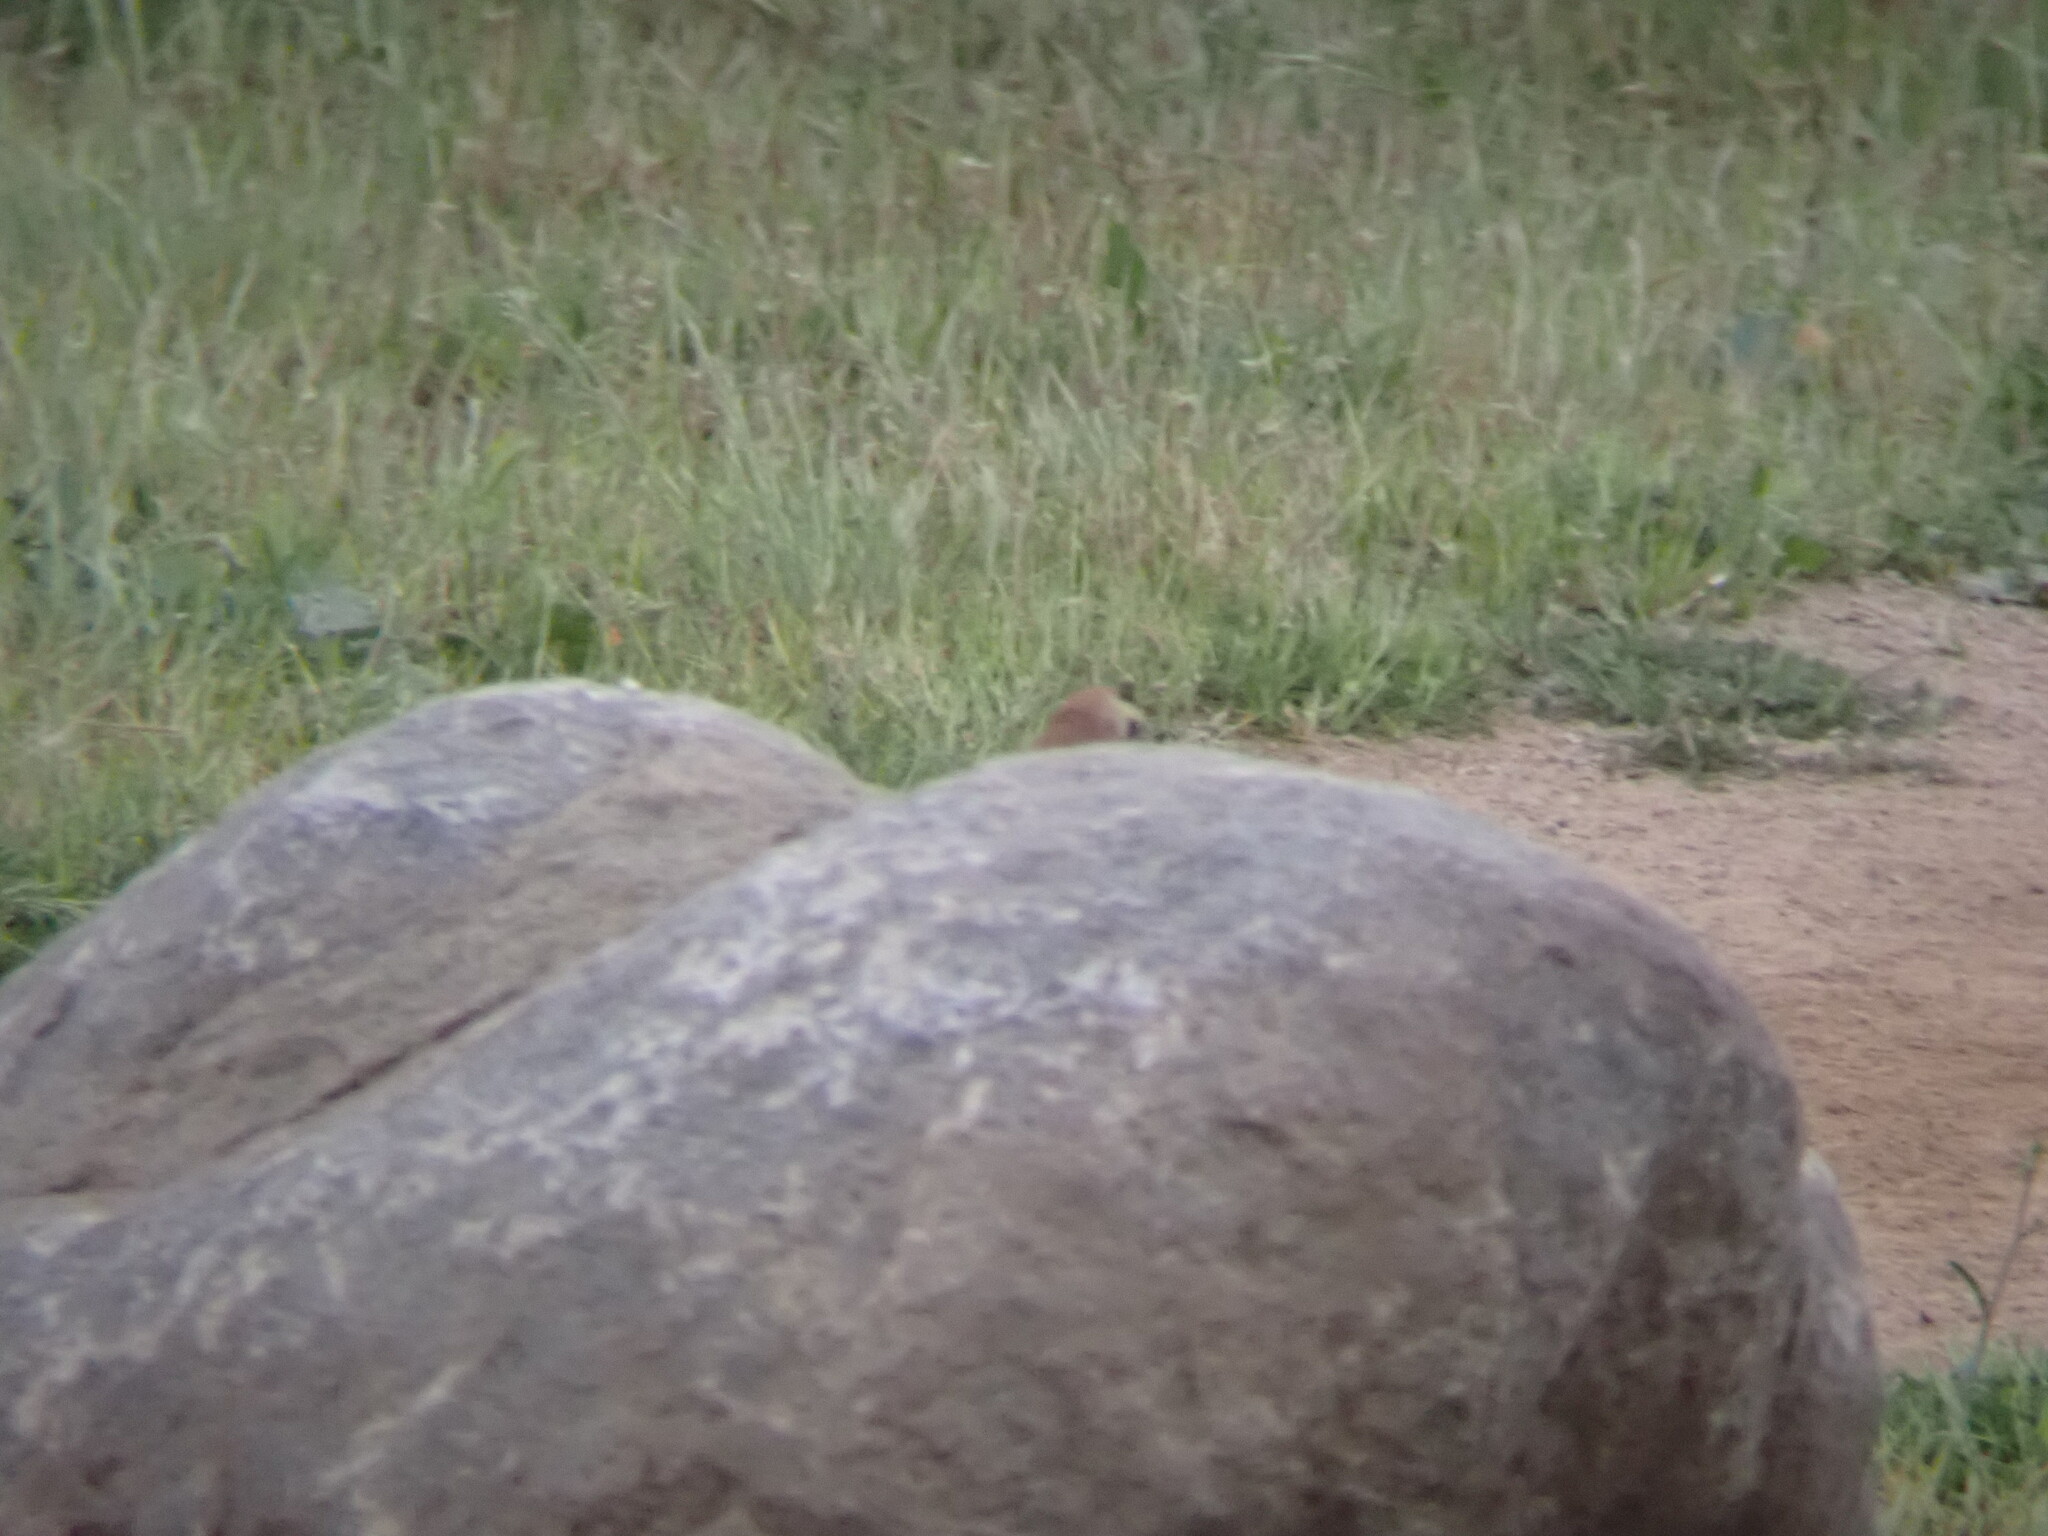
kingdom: Animalia
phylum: Chordata
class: Aves
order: Passeriformes
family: Alaudidae
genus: Eremophila
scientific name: Eremophila alpestris
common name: Horned lark
